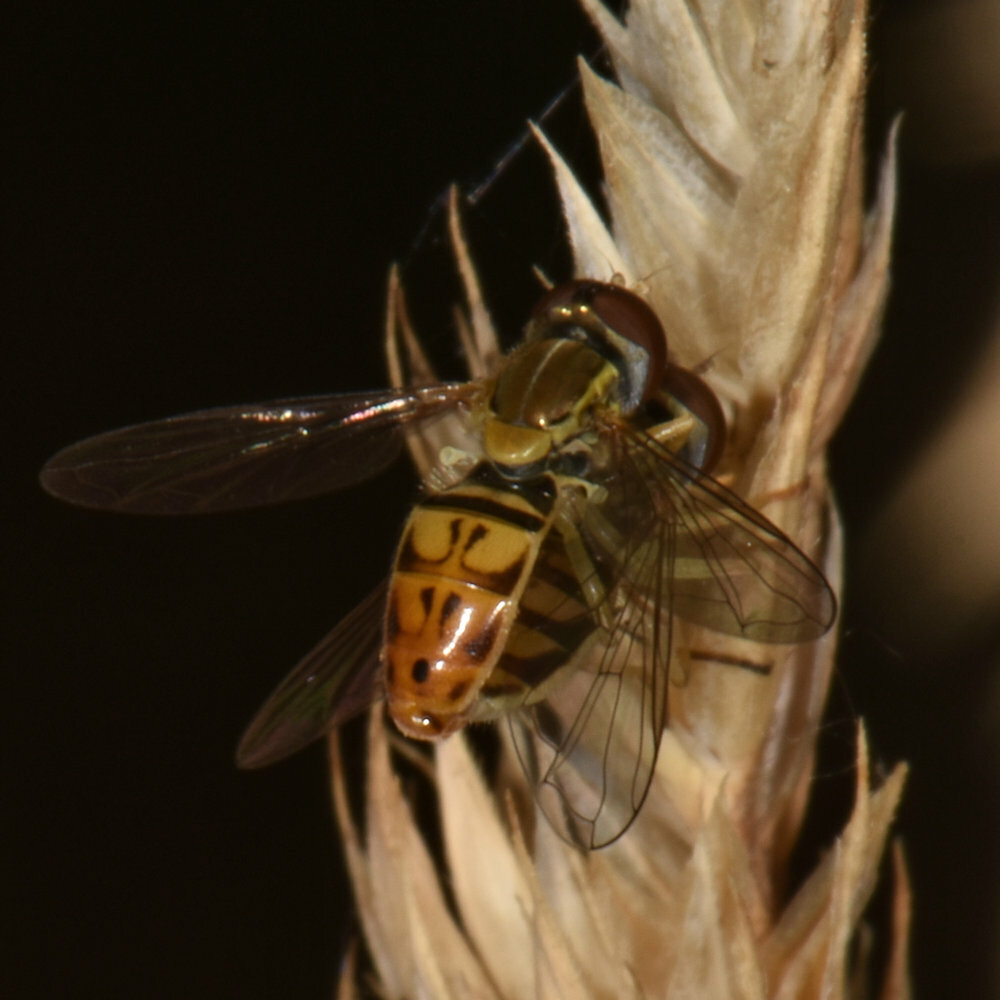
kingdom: Animalia
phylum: Arthropoda
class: Insecta
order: Diptera
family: Syrphidae
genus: Toxomerus
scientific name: Toxomerus marginatus
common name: Syrphid fly
